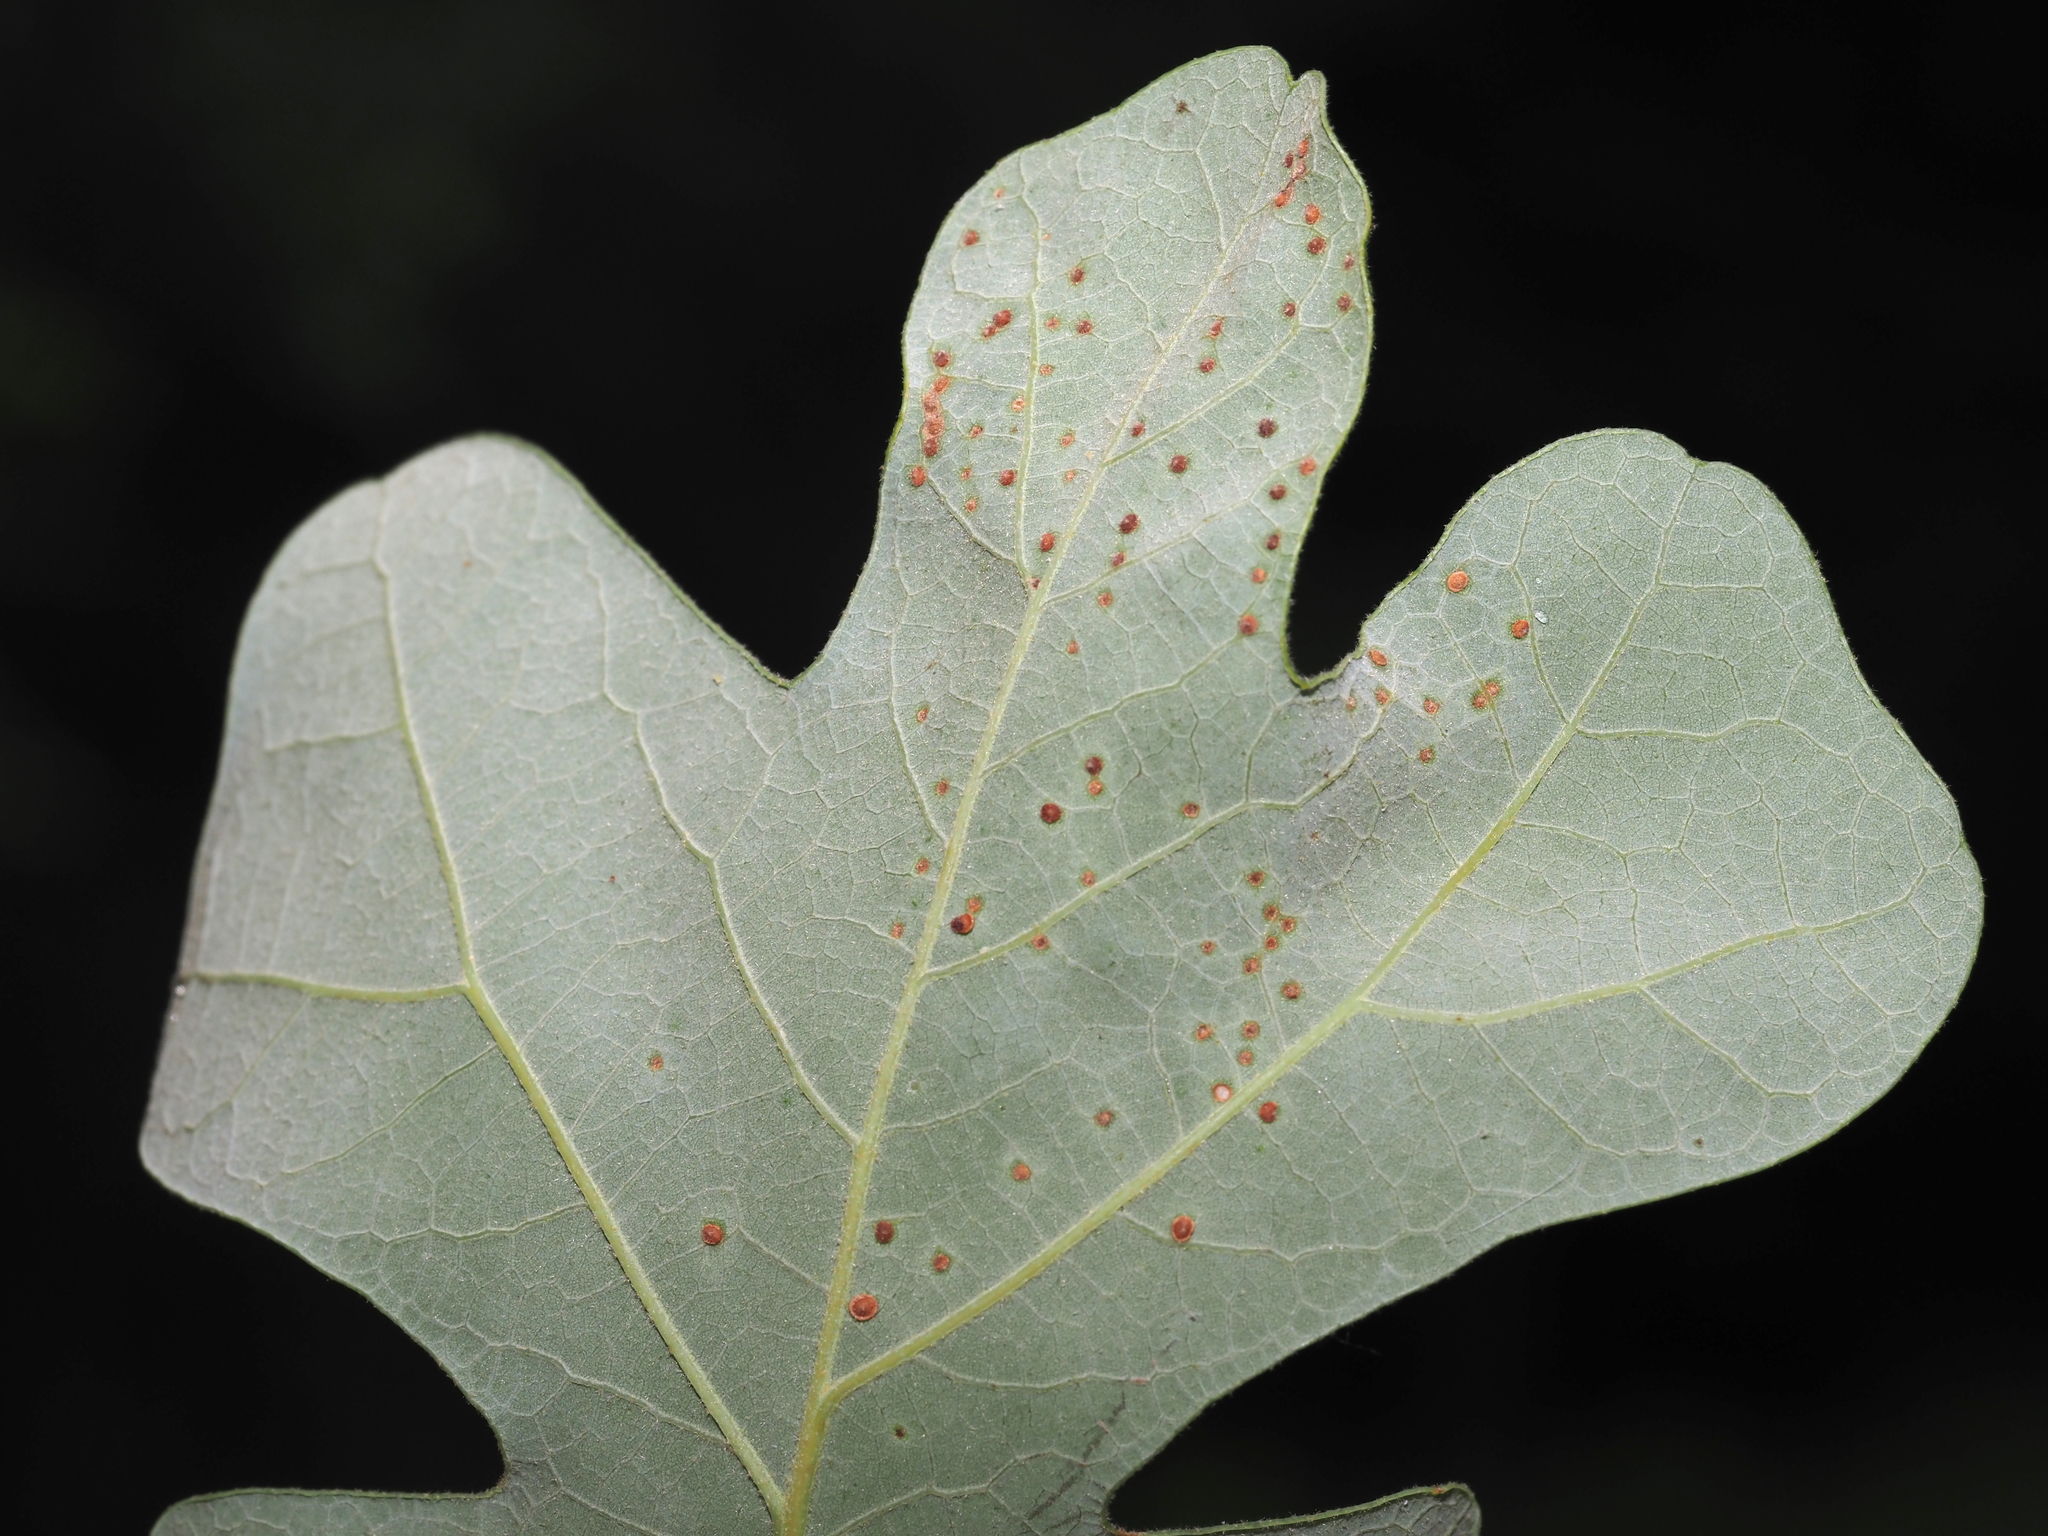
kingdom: Animalia
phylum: Arthropoda
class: Insecta
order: Hymenoptera
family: Cynipidae
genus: Neuroterus
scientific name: Neuroterus
